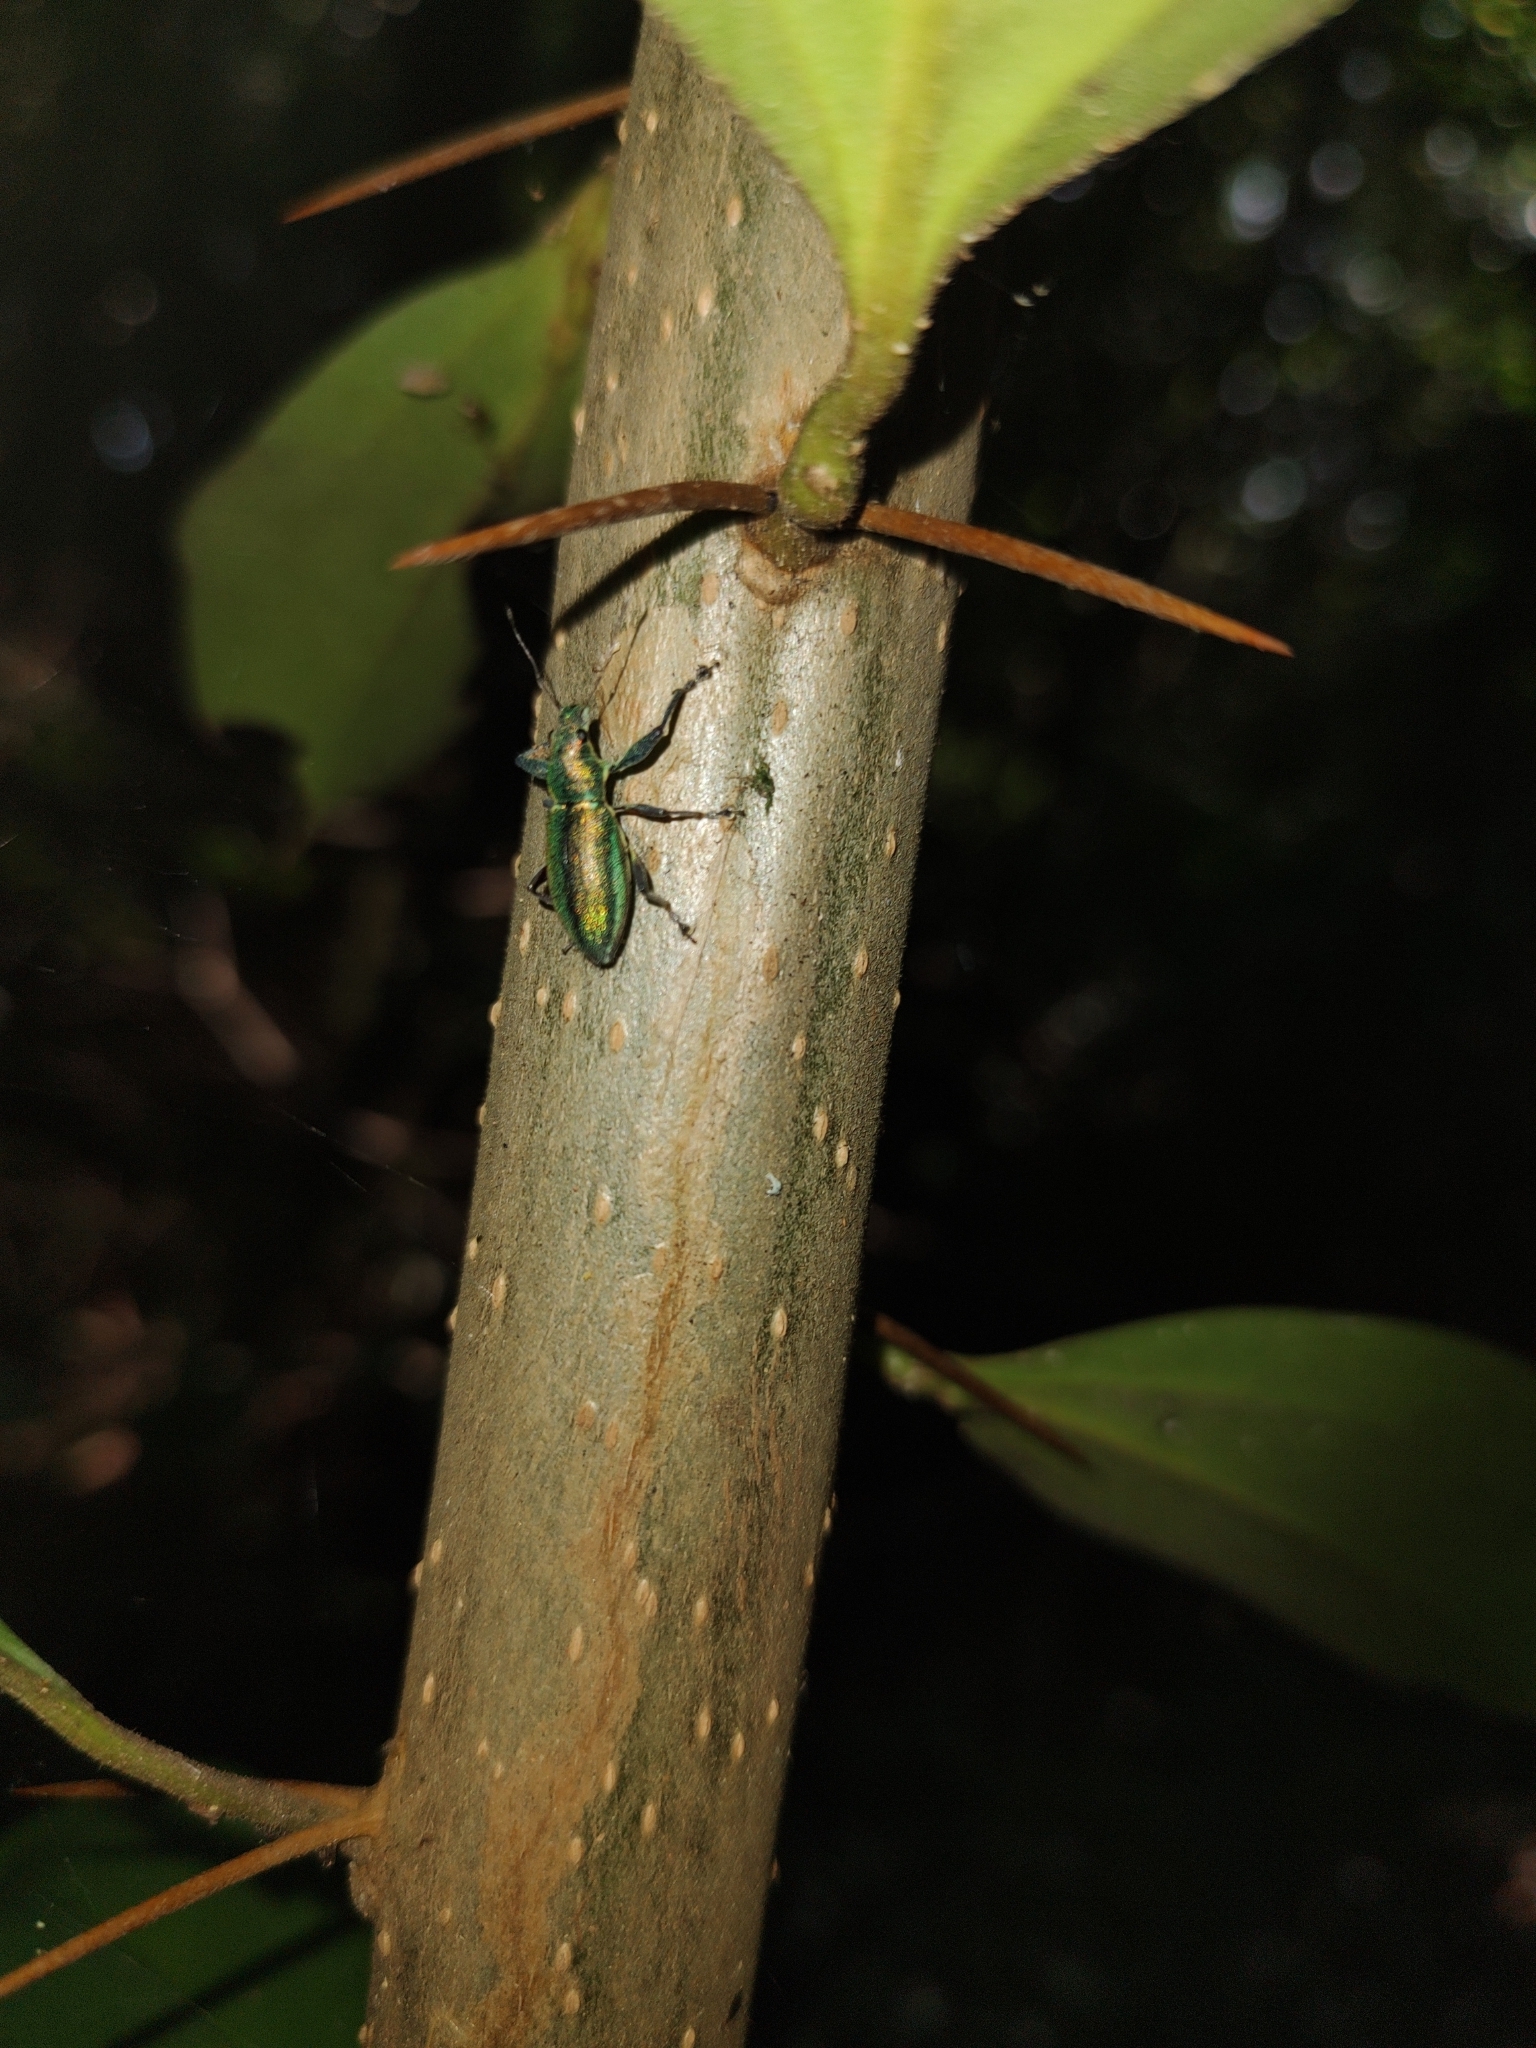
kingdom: Animalia
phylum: Arthropoda
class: Insecta
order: Coleoptera
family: Curculionidae
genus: Naupactus
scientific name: Naupactus auricinctus
